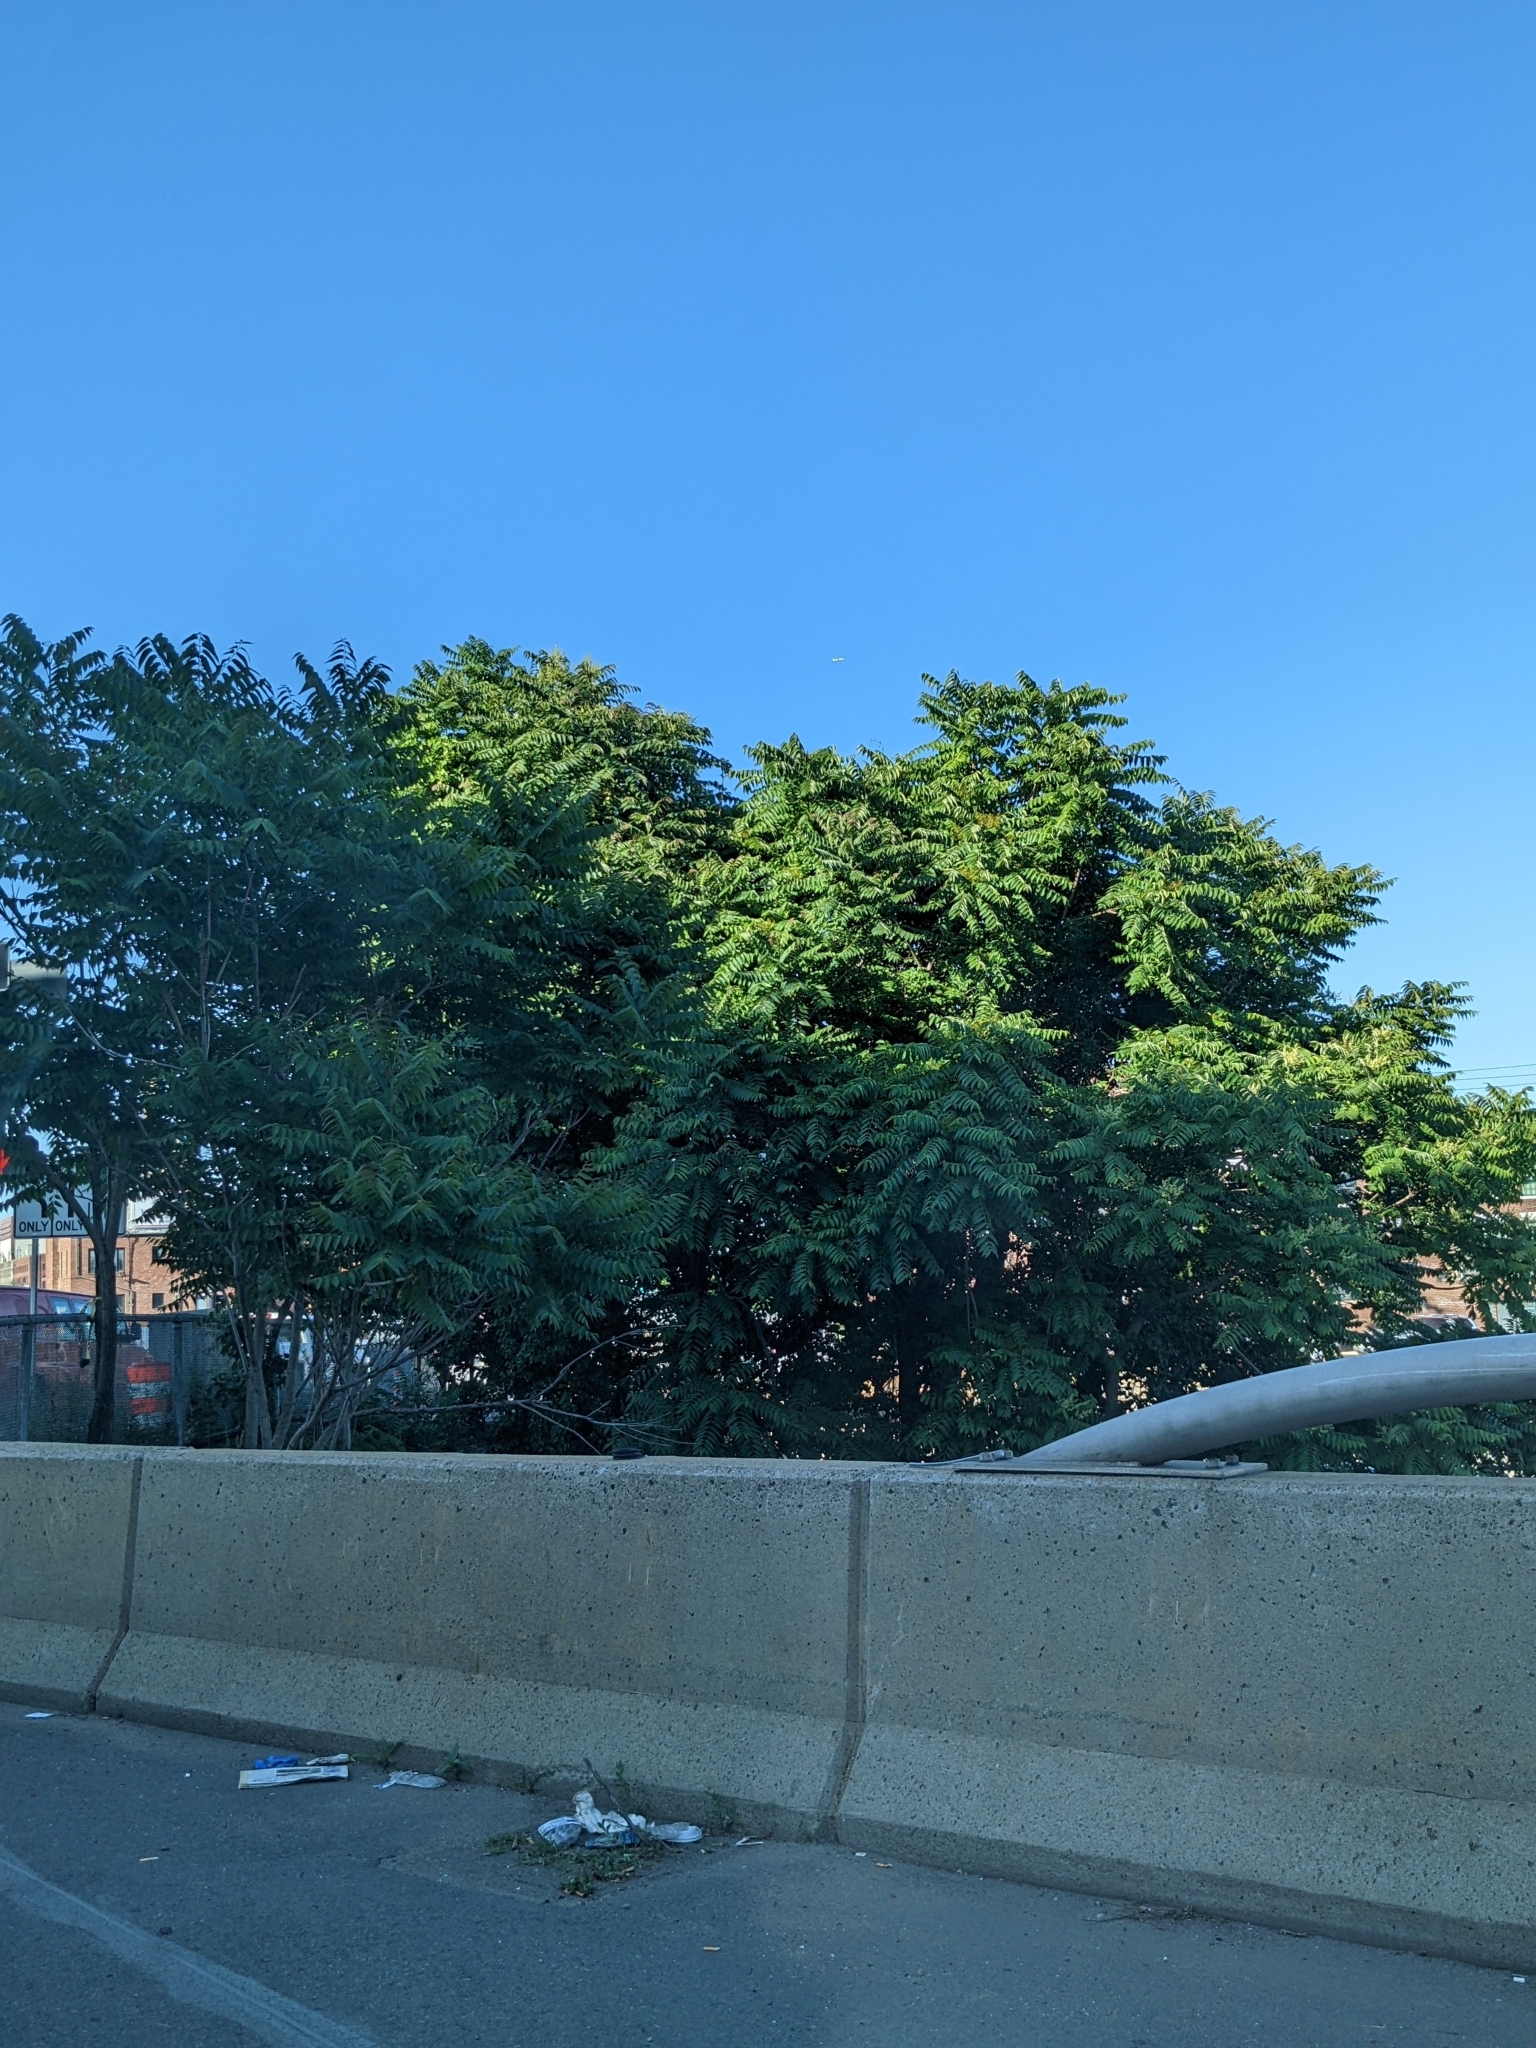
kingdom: Plantae
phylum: Tracheophyta
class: Magnoliopsida
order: Sapindales
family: Anacardiaceae
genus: Rhus
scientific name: Rhus
